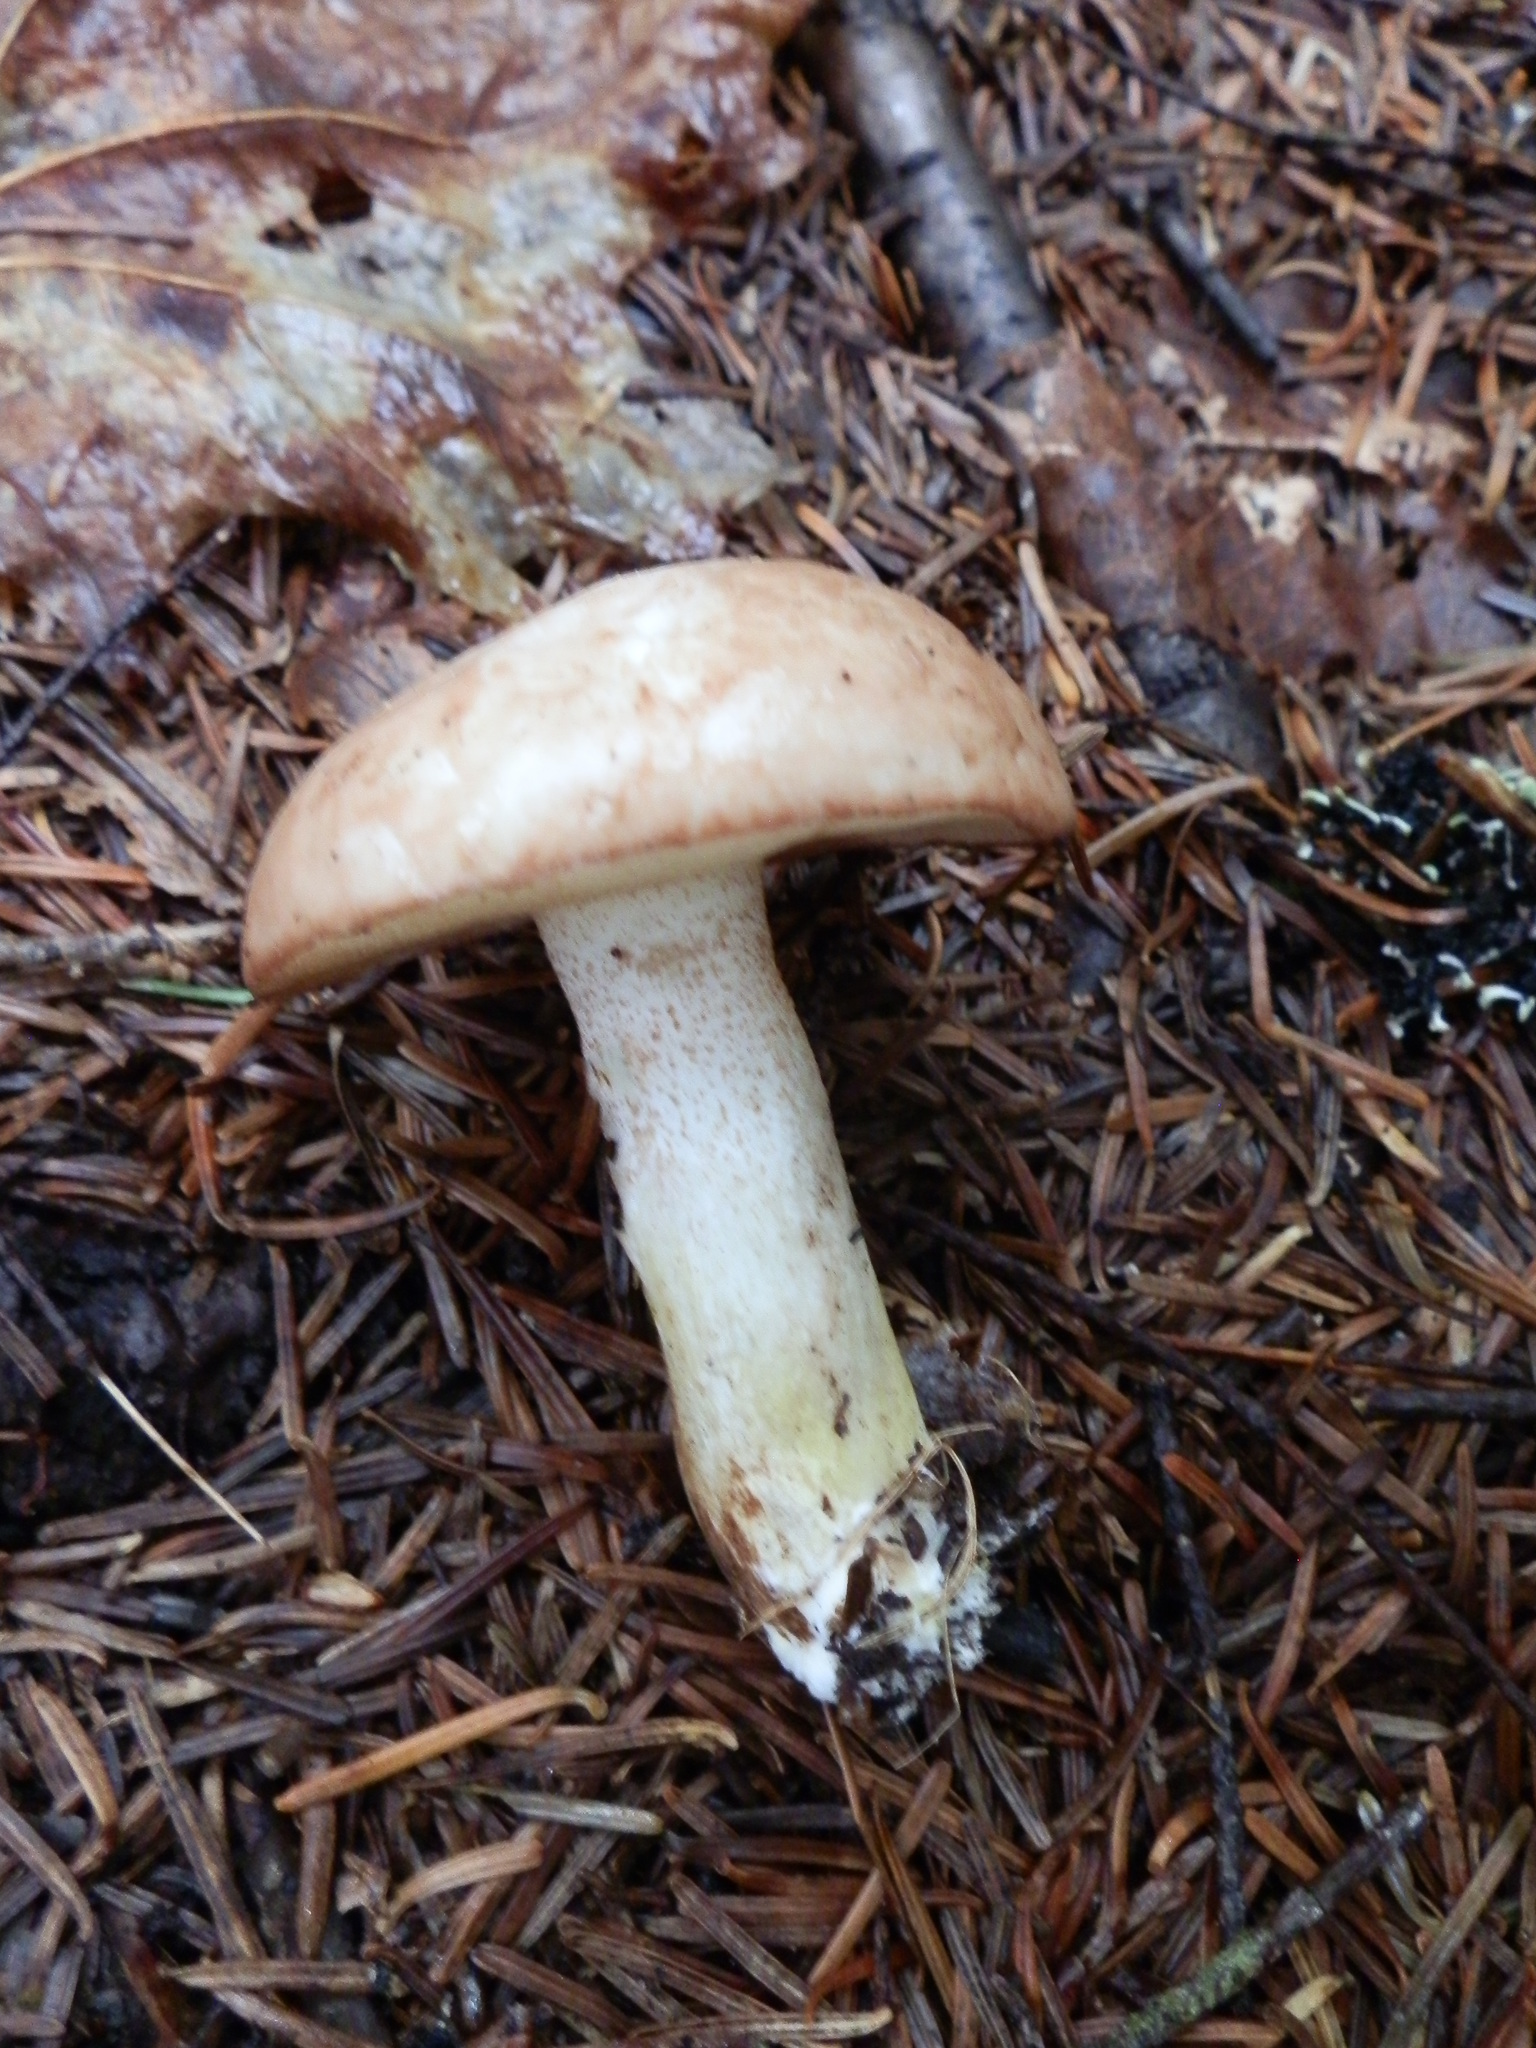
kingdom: Fungi
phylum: Basidiomycota
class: Agaricomycetes
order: Boletales
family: Suillaceae
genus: Fuscoboletinus
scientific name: Fuscoboletinus weaverae
